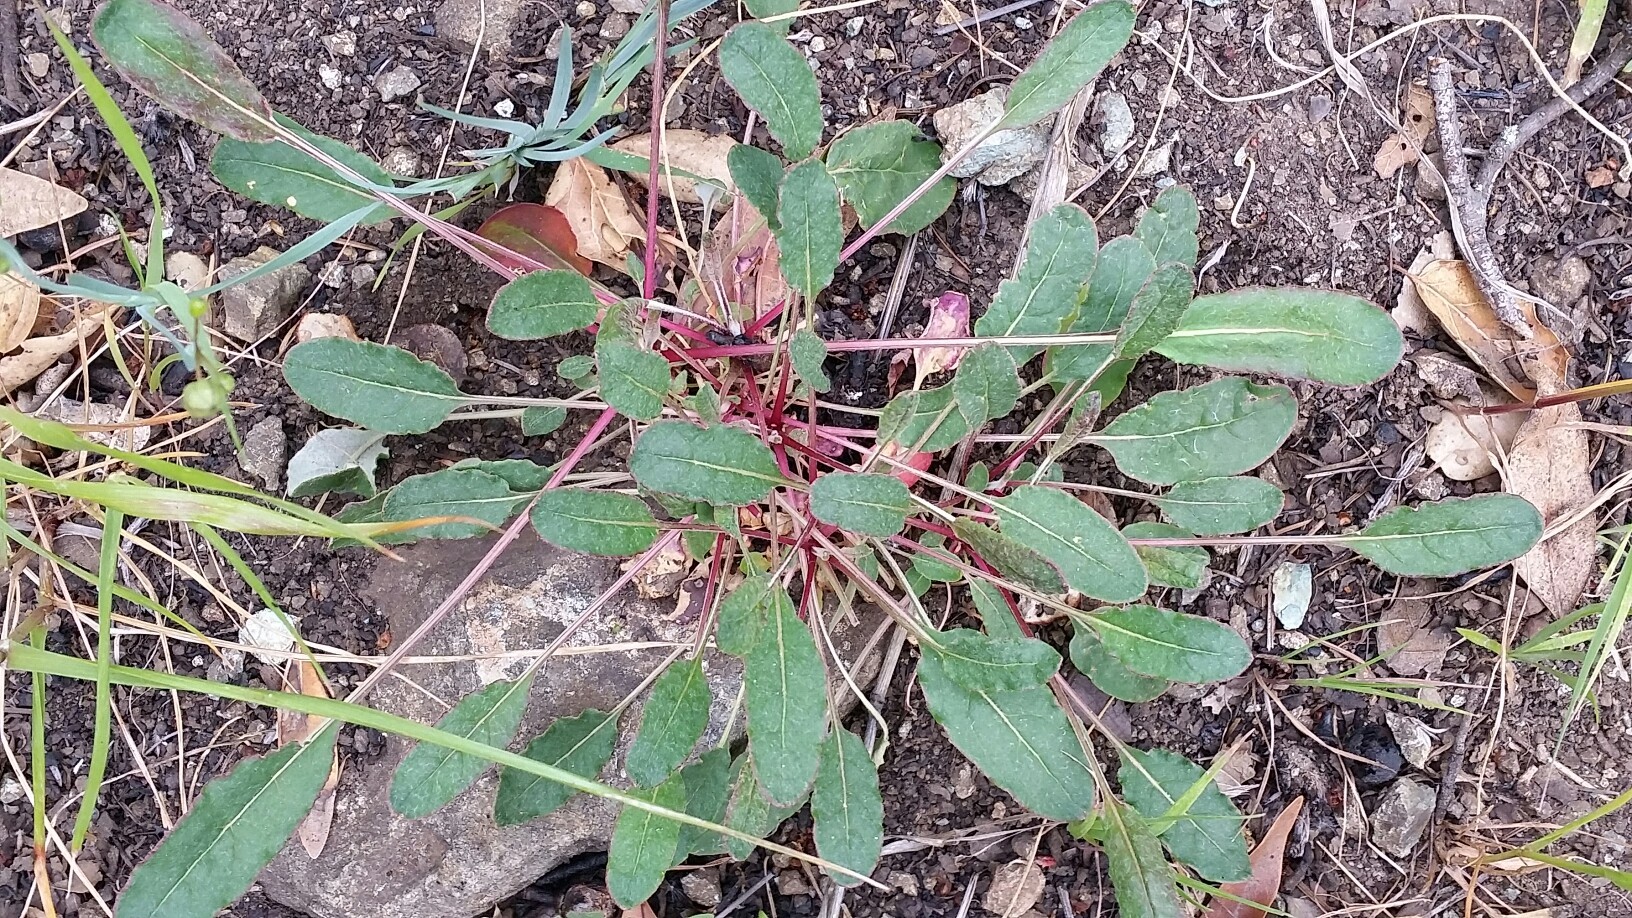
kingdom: Plantae
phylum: Tracheophyta
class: Magnoliopsida
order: Caryophyllales
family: Polygonaceae
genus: Eriogonum
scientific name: Eriogonum nudum
